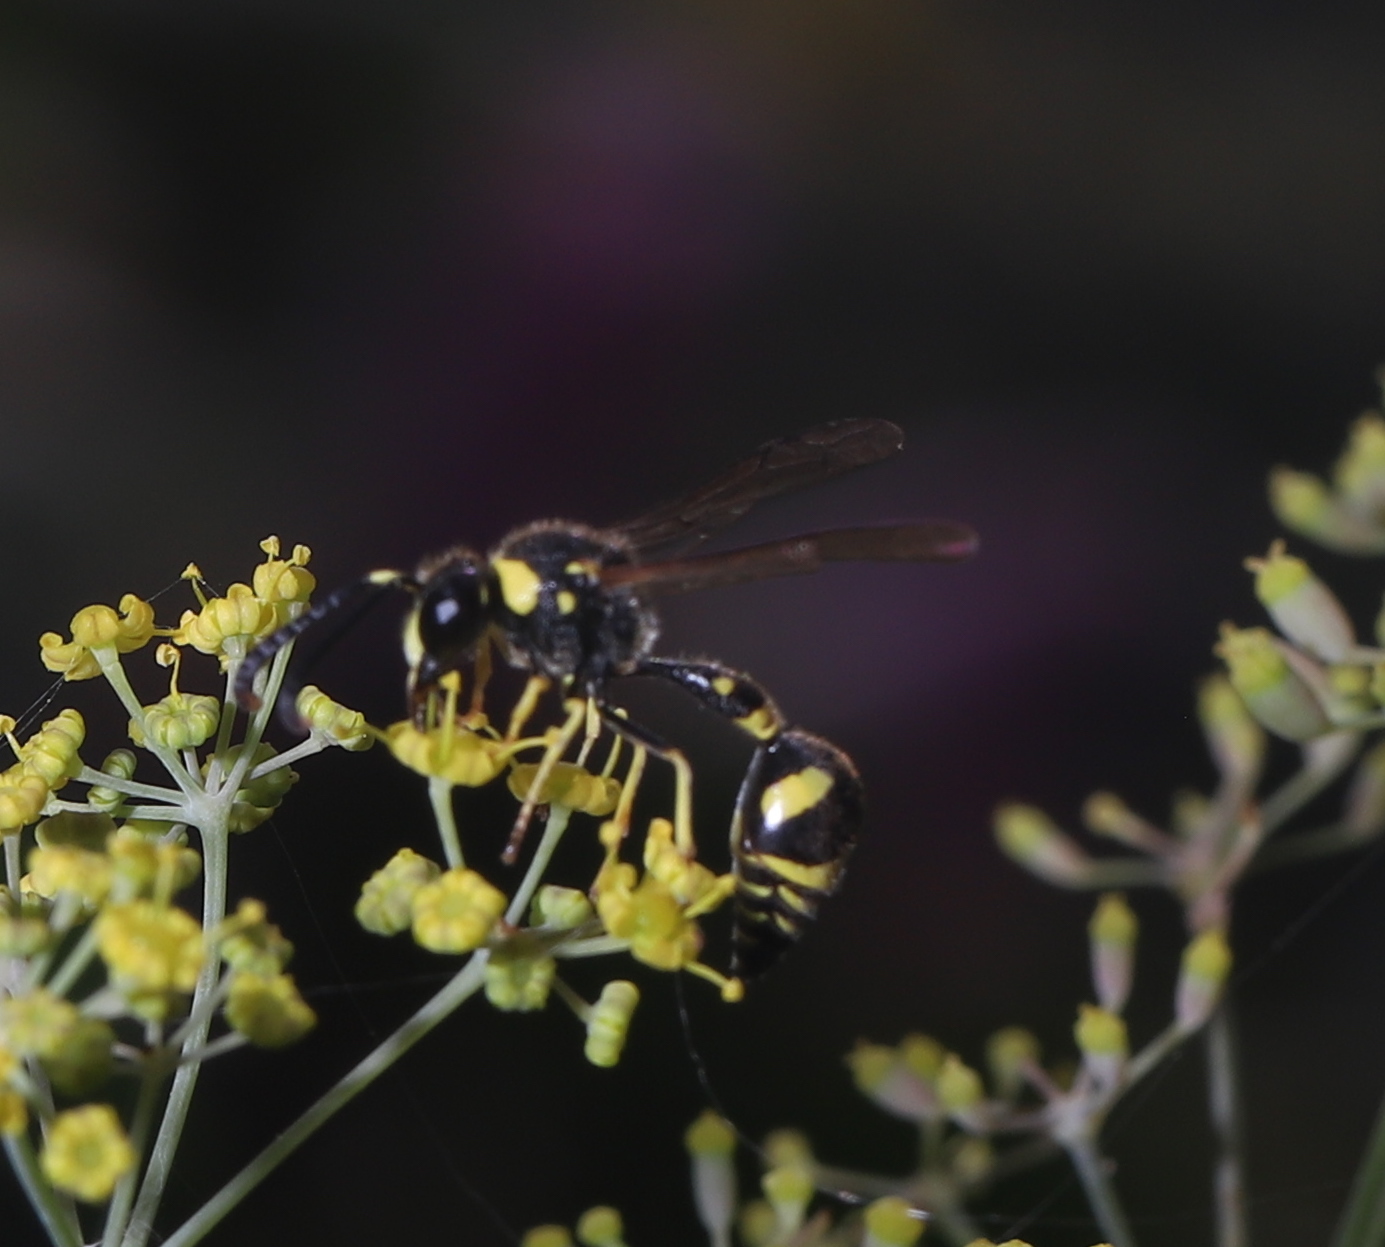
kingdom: Animalia
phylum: Arthropoda
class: Insecta
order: Hymenoptera
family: Vespidae
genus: Eumenes
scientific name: Eumenes mediterraneus
